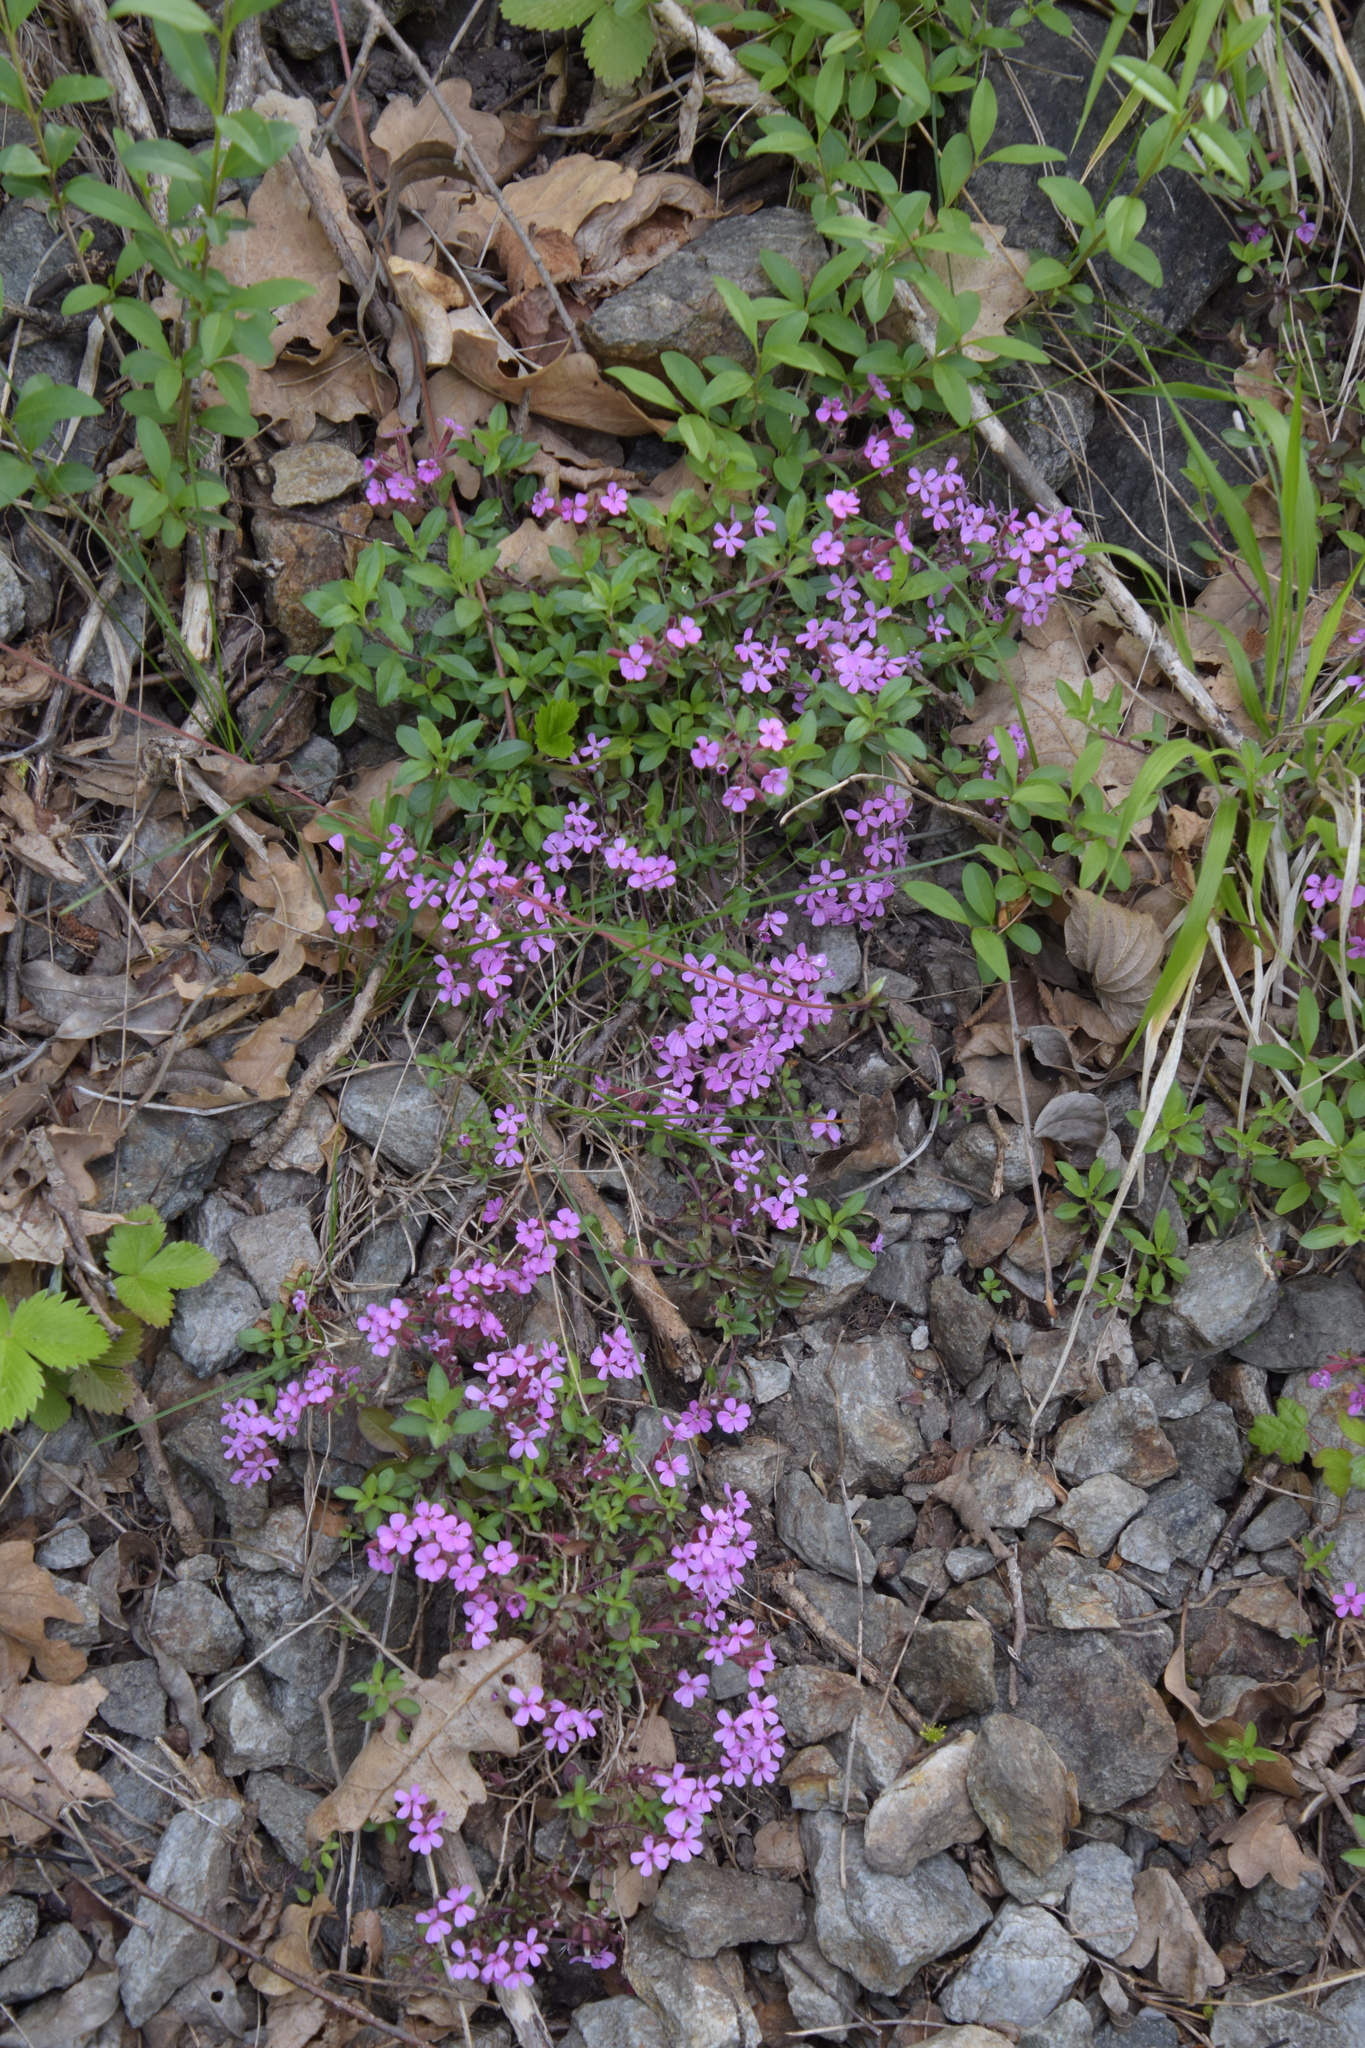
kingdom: Plantae
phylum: Tracheophyta
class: Magnoliopsida
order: Caryophyllales
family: Caryophyllaceae
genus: Saponaria
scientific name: Saponaria ocymoides
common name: Rock soapwort
